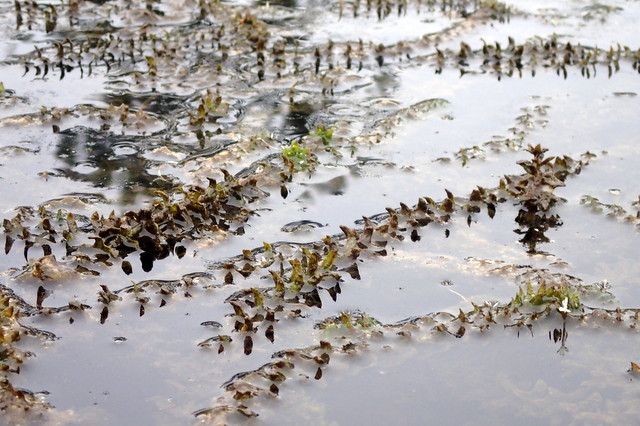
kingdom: Plantae
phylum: Tracheophyta
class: Liliopsida
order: Alismatales
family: Hydrocharitaceae
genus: Hydrilla
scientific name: Hydrilla verticillata
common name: Florida-elodea
